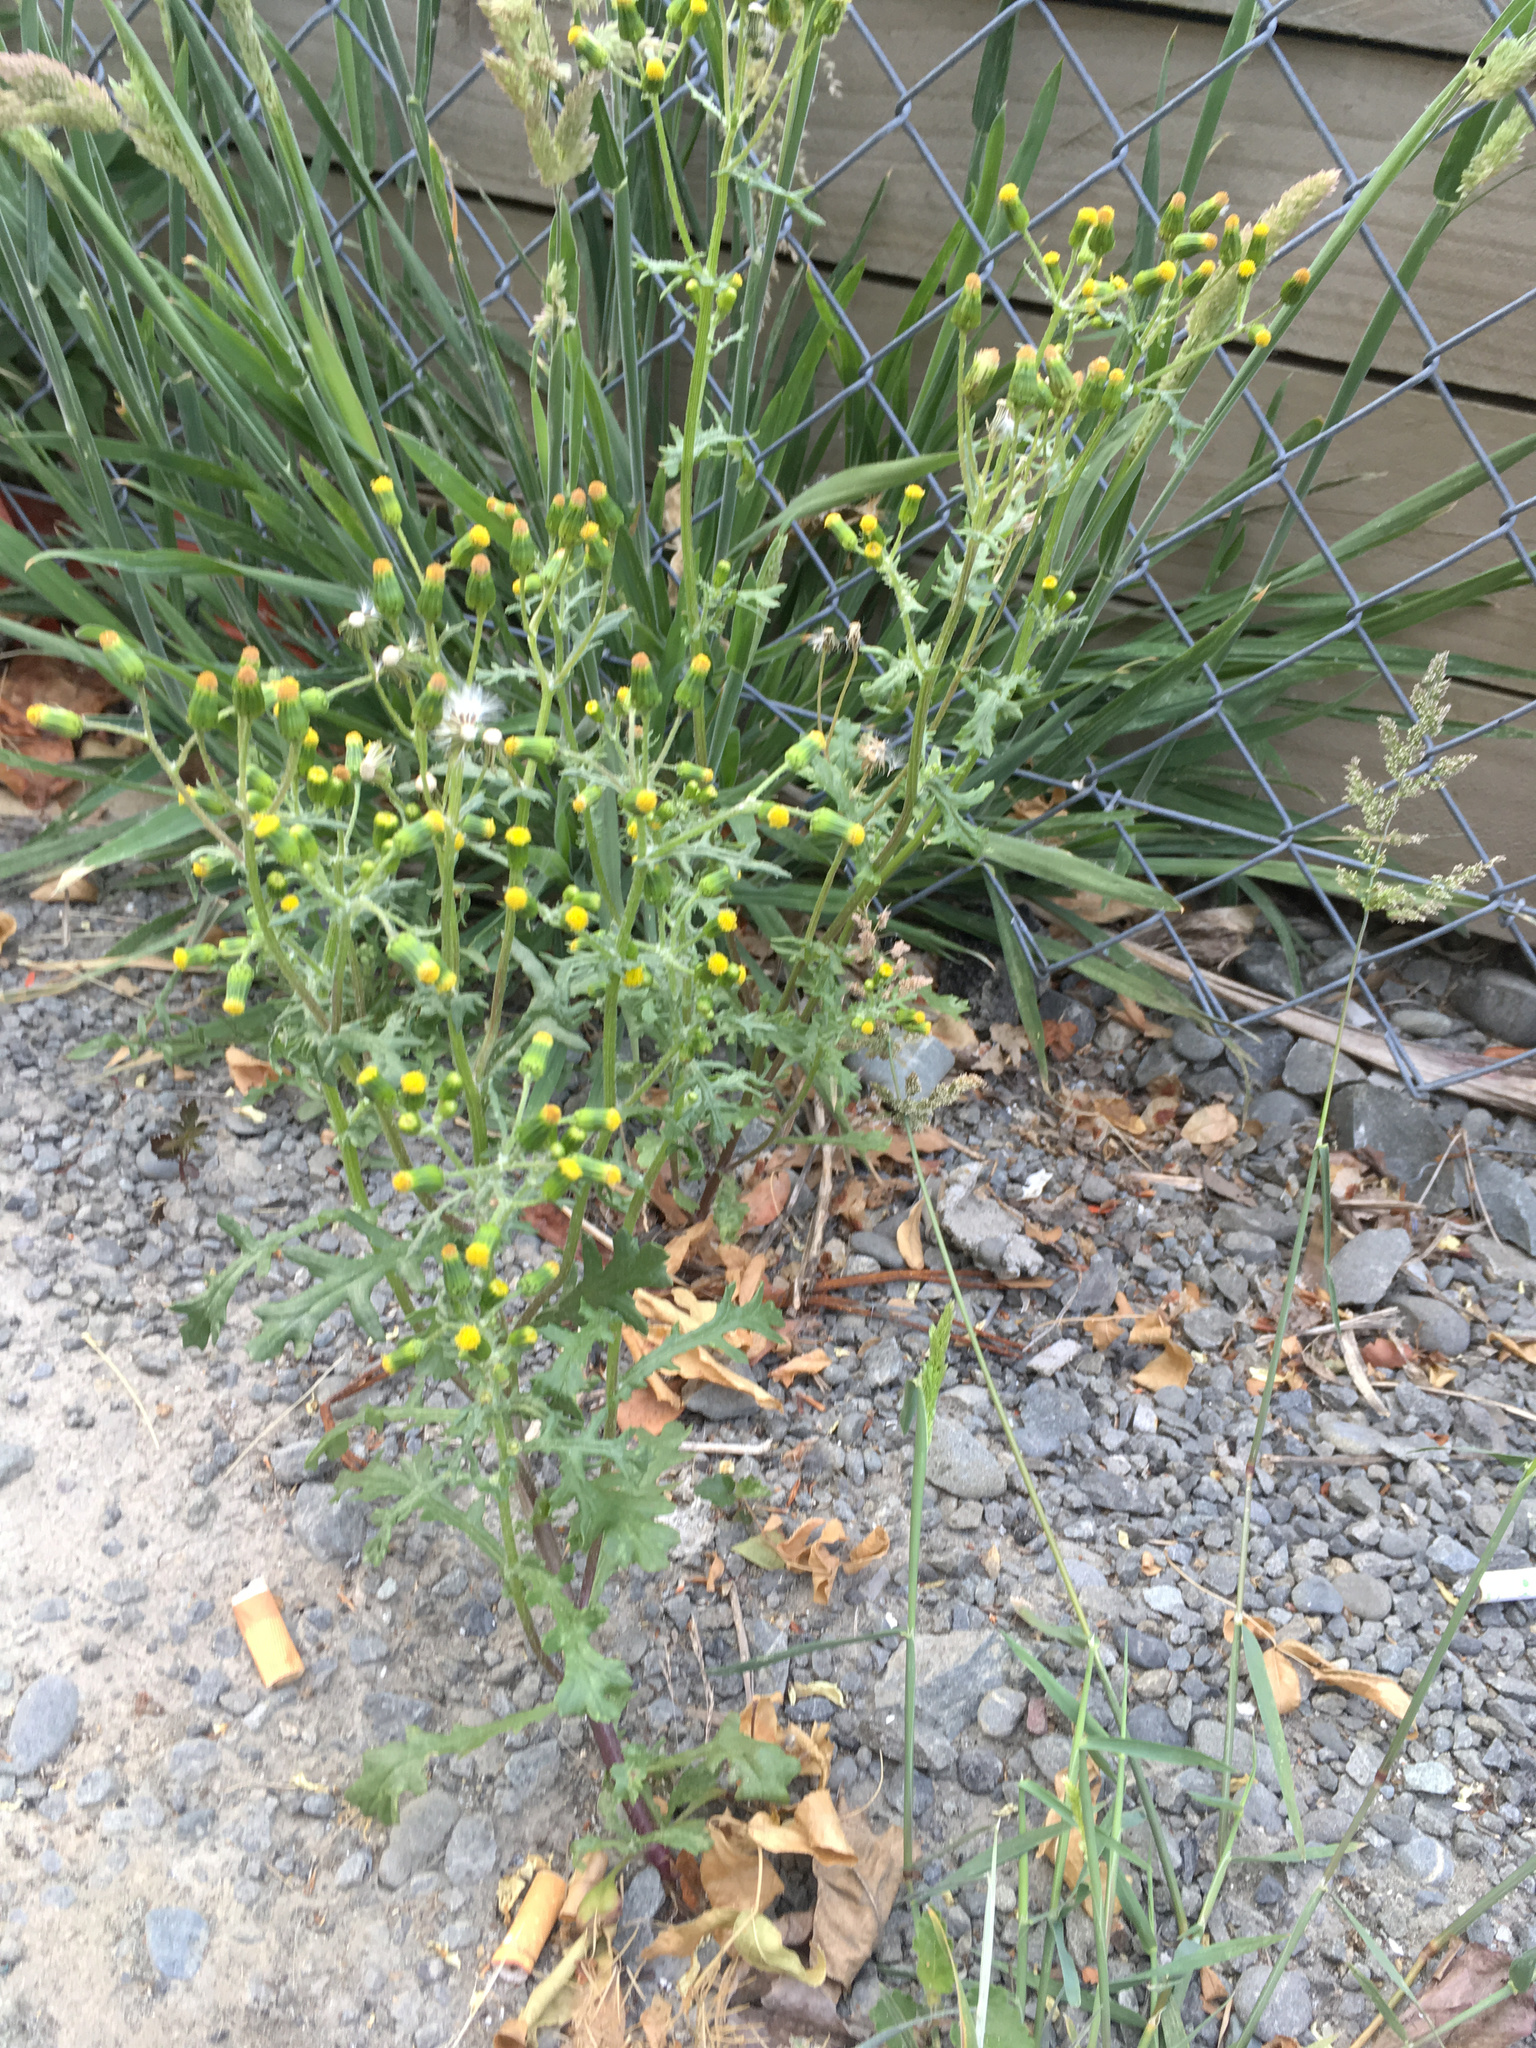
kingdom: Plantae
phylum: Tracheophyta
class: Magnoliopsida
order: Asterales
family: Asteraceae
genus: Senecio
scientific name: Senecio vulgaris
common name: Old-man-in-the-spring
